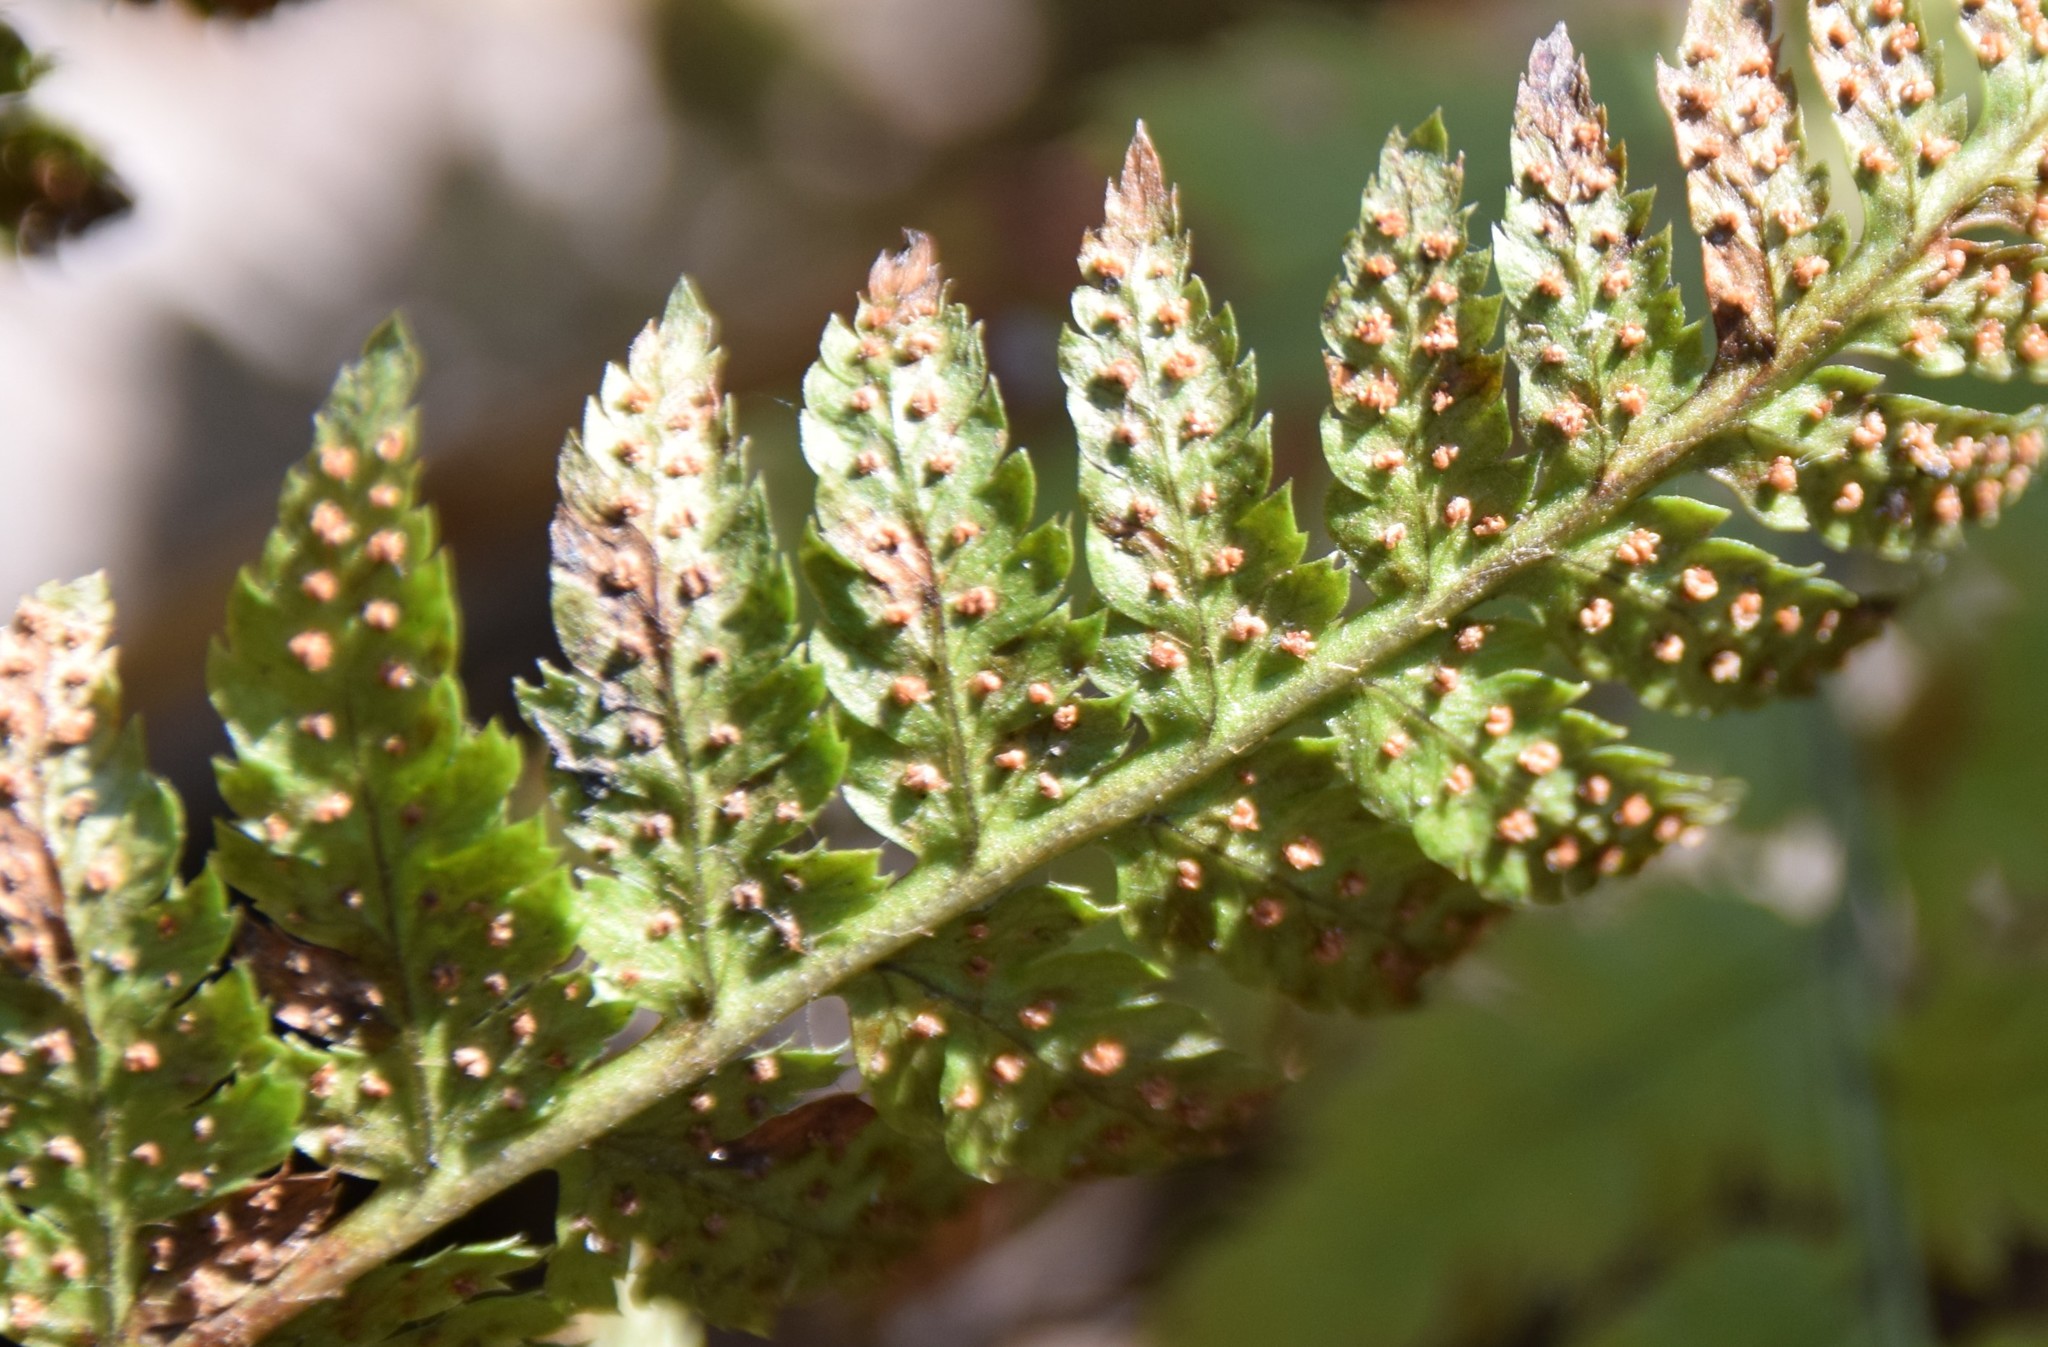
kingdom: Plantae
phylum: Tracheophyta
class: Polypodiopsida
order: Polypodiales
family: Dryopteridaceae
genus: Dryopteris
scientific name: Dryopteris intermedia
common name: Evergreen wood fern
